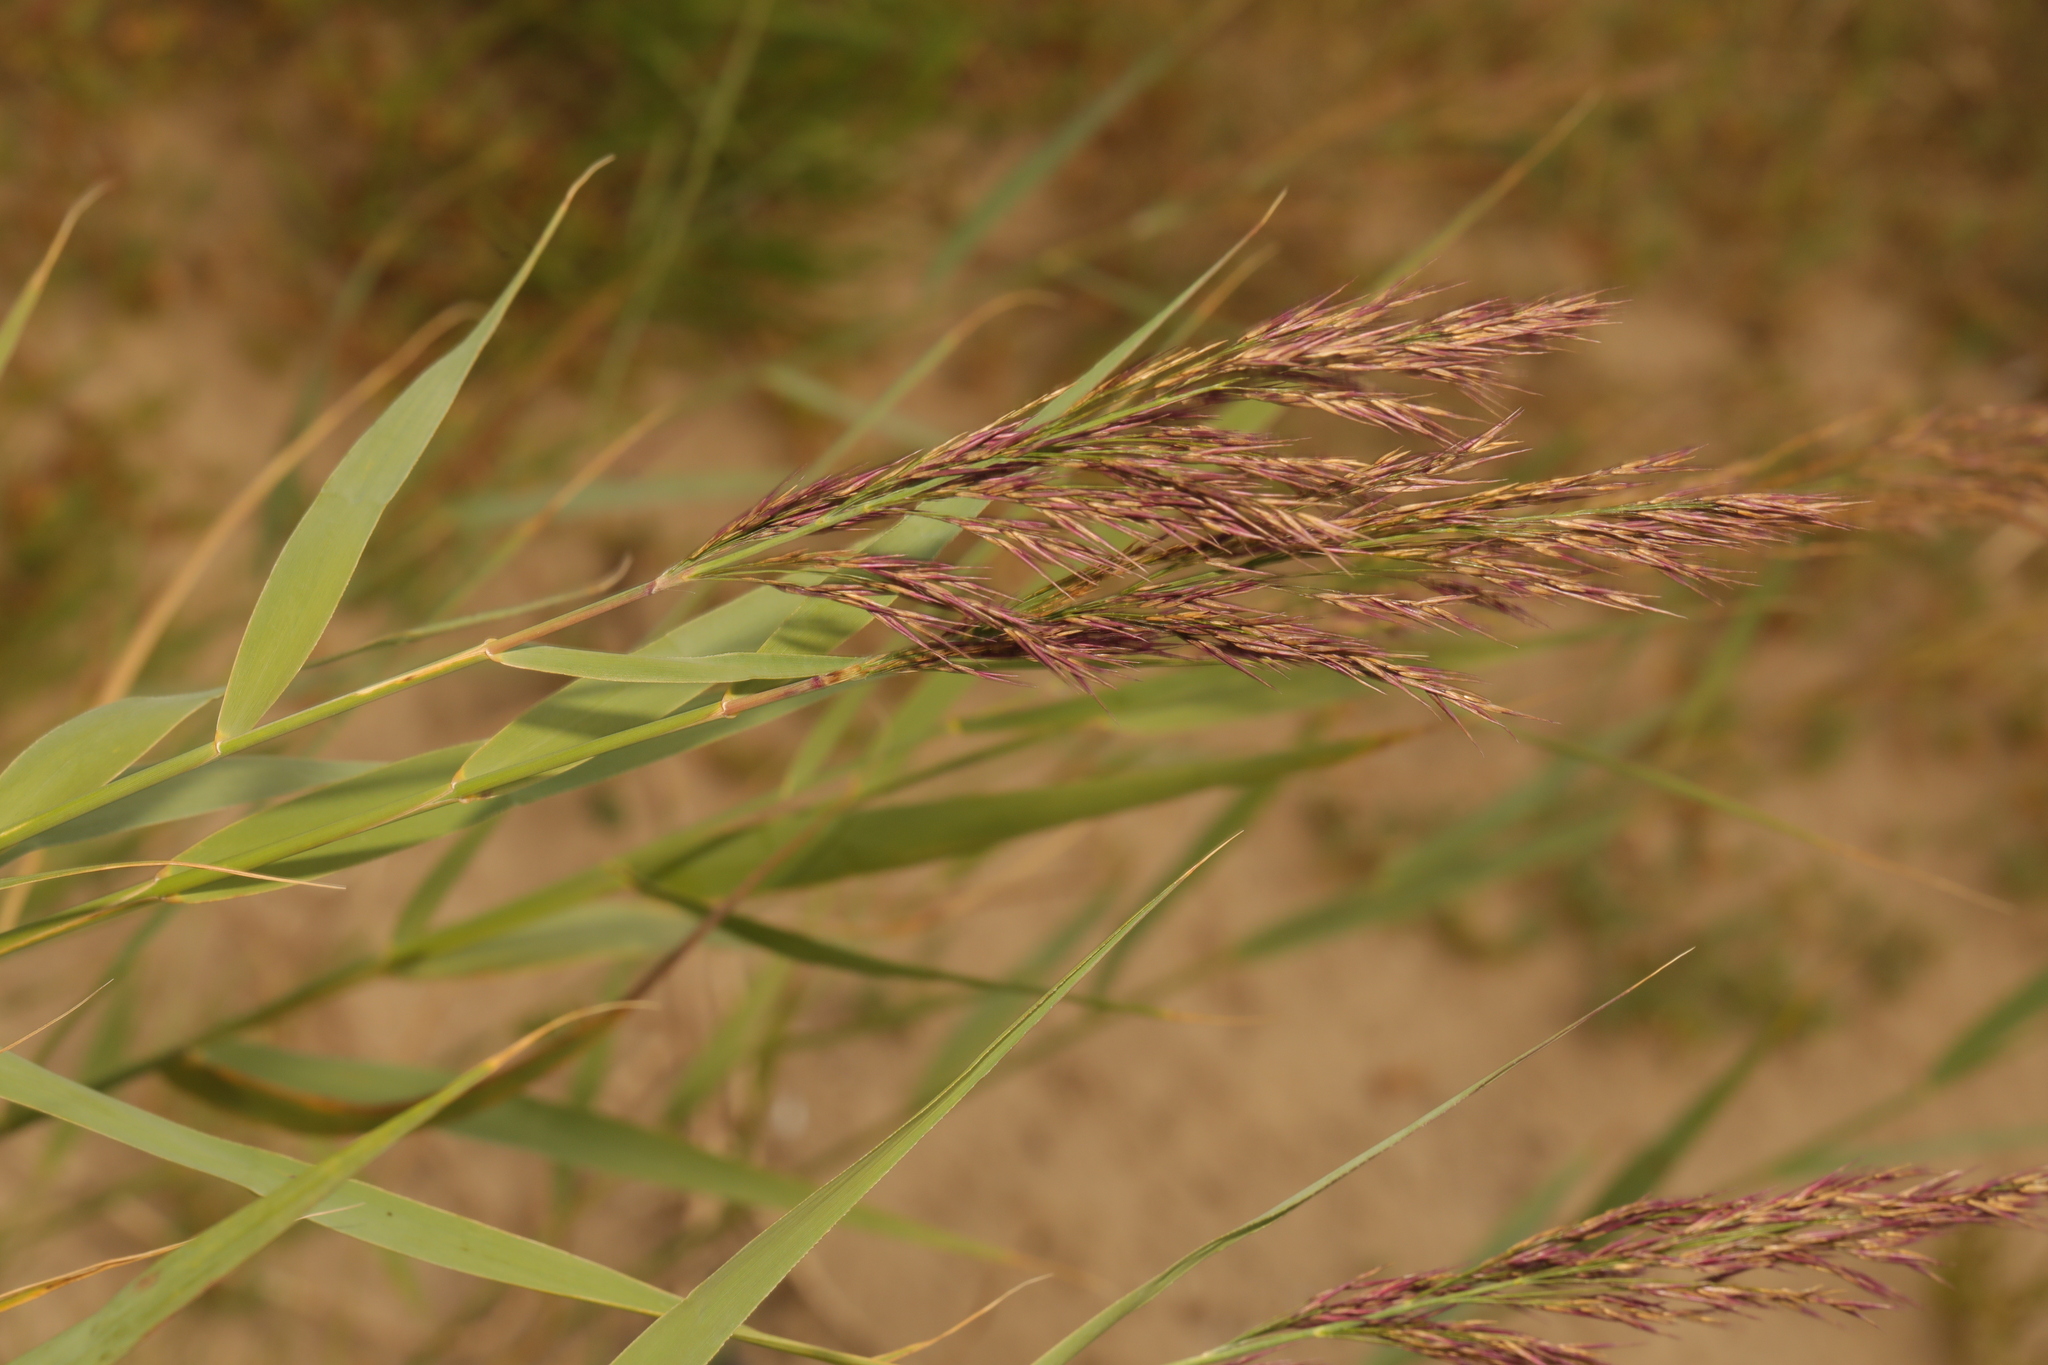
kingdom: Plantae
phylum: Tracheophyta
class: Liliopsida
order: Poales
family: Poaceae
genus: Phragmites
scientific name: Phragmites australis
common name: Common reed
